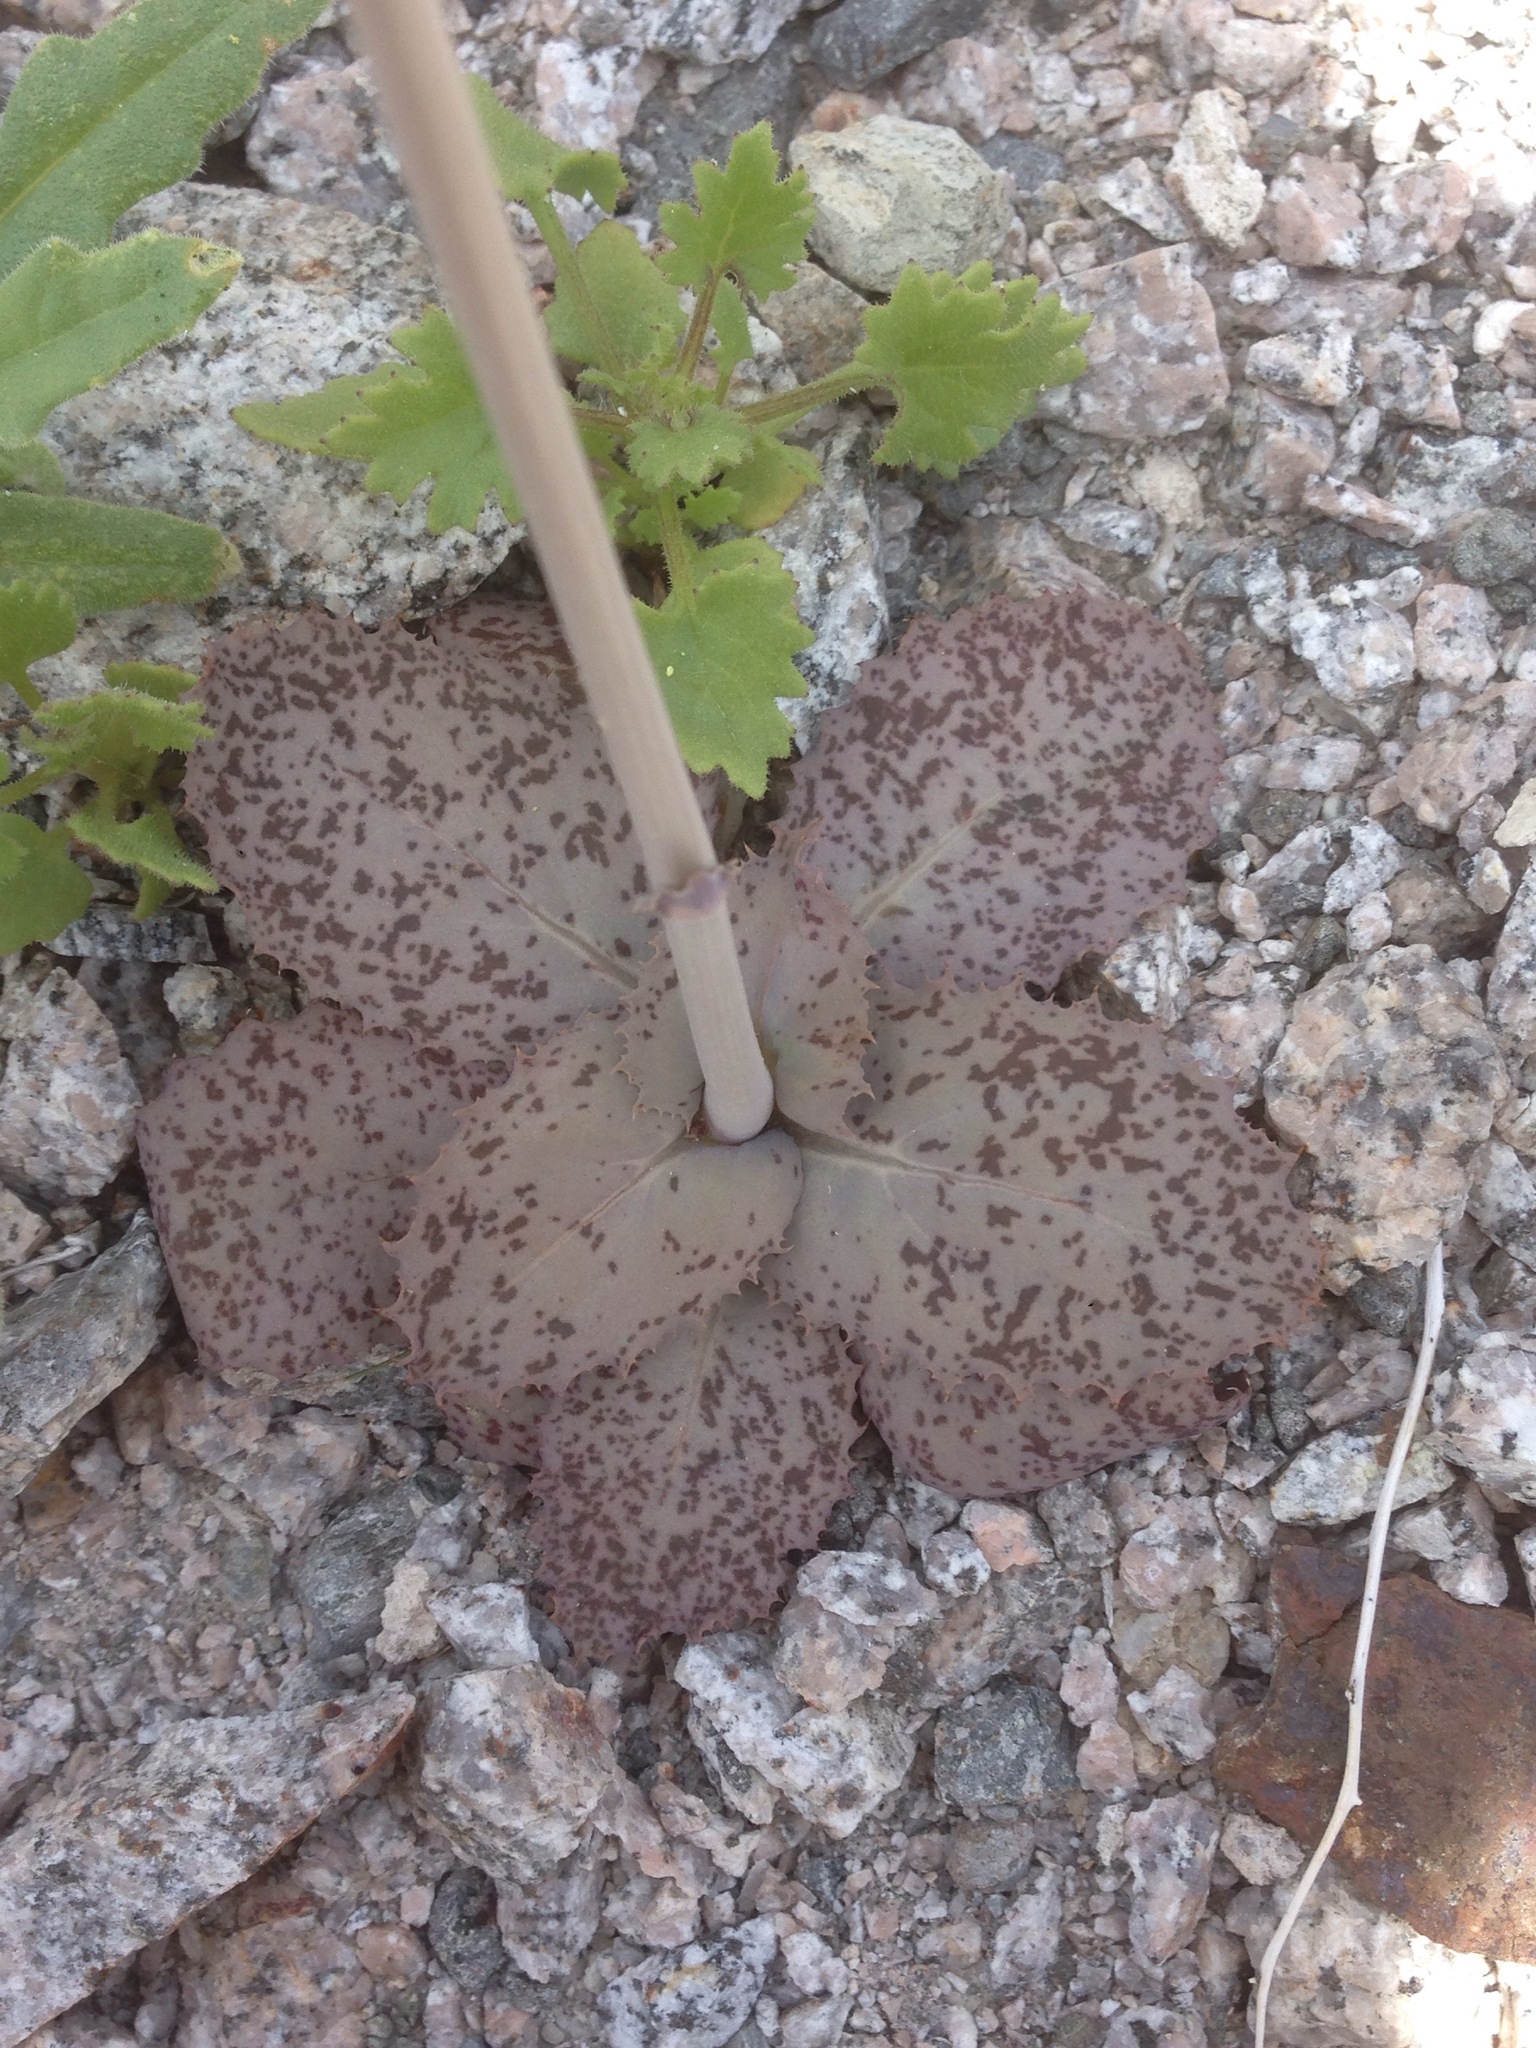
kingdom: Plantae
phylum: Tracheophyta
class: Magnoliopsida
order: Asterales
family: Asteraceae
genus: Atrichoseris
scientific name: Atrichoseris platyphylla
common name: Tobaccoweed
